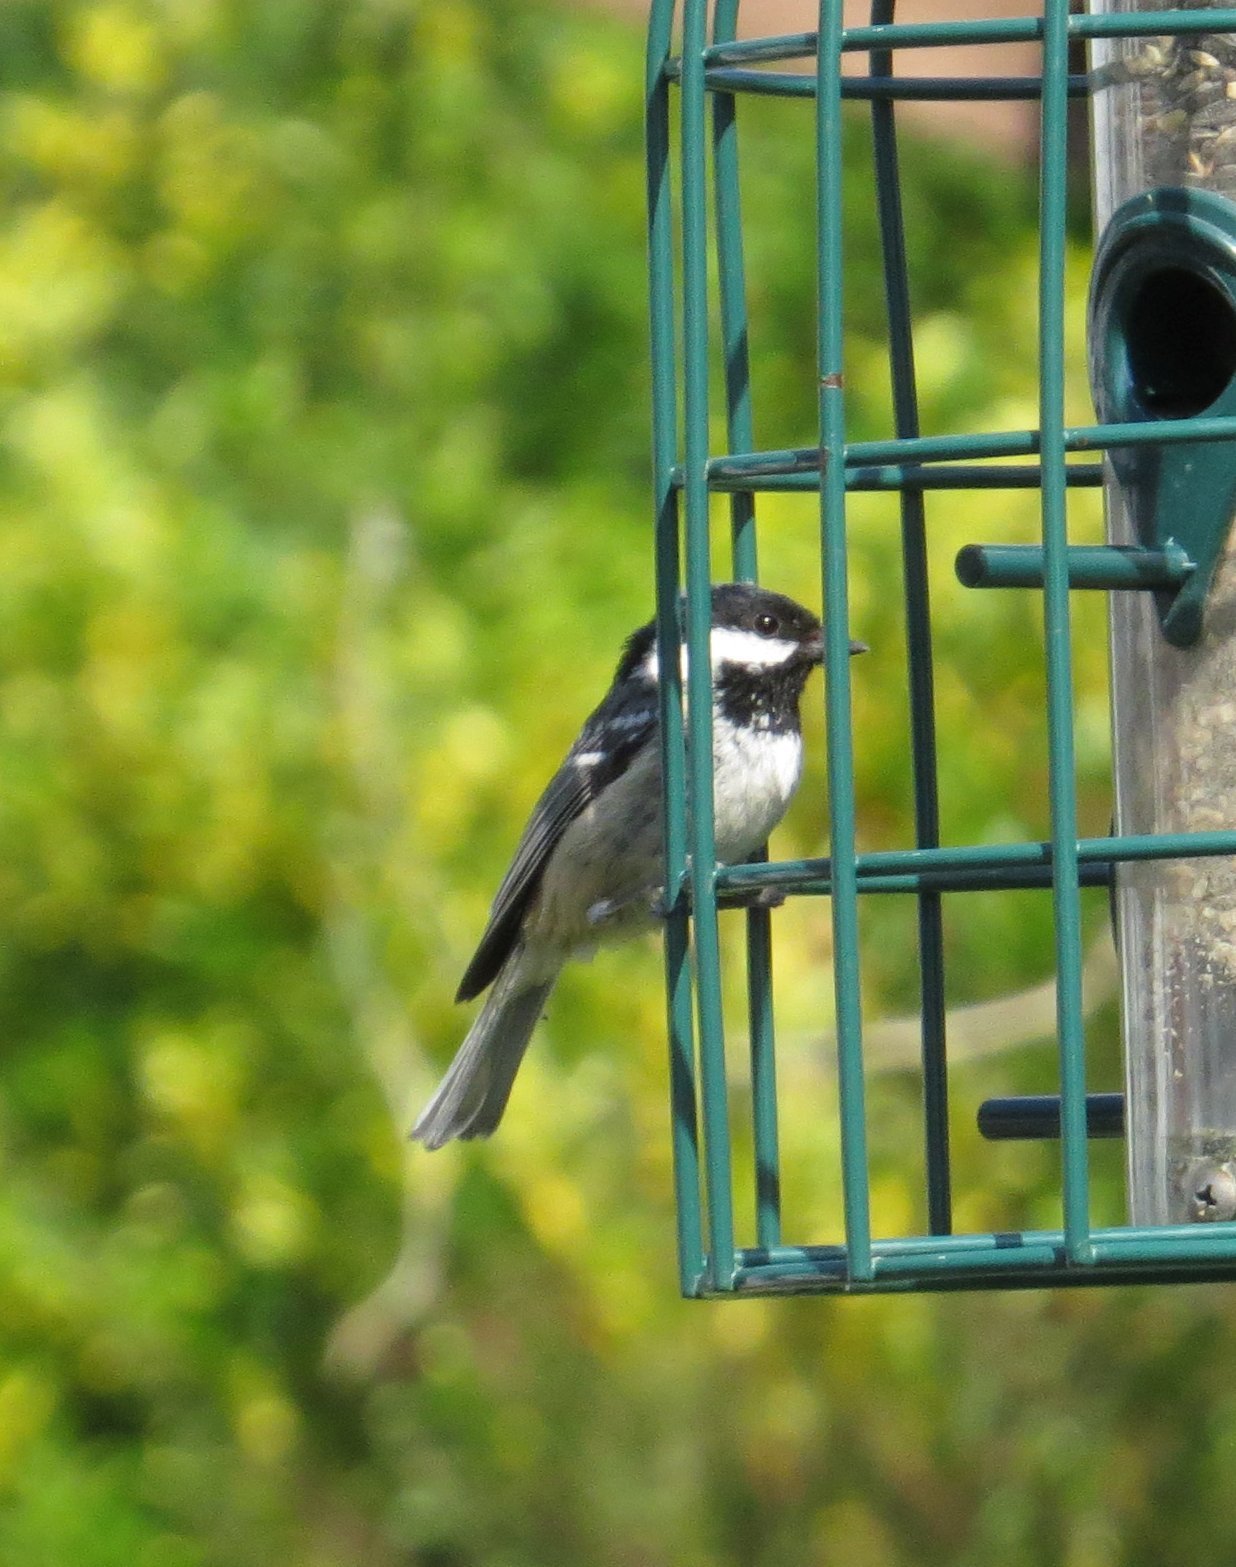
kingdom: Animalia
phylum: Chordata
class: Aves
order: Passeriformes
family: Paridae
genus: Periparus
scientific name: Periparus ater
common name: Coal tit
